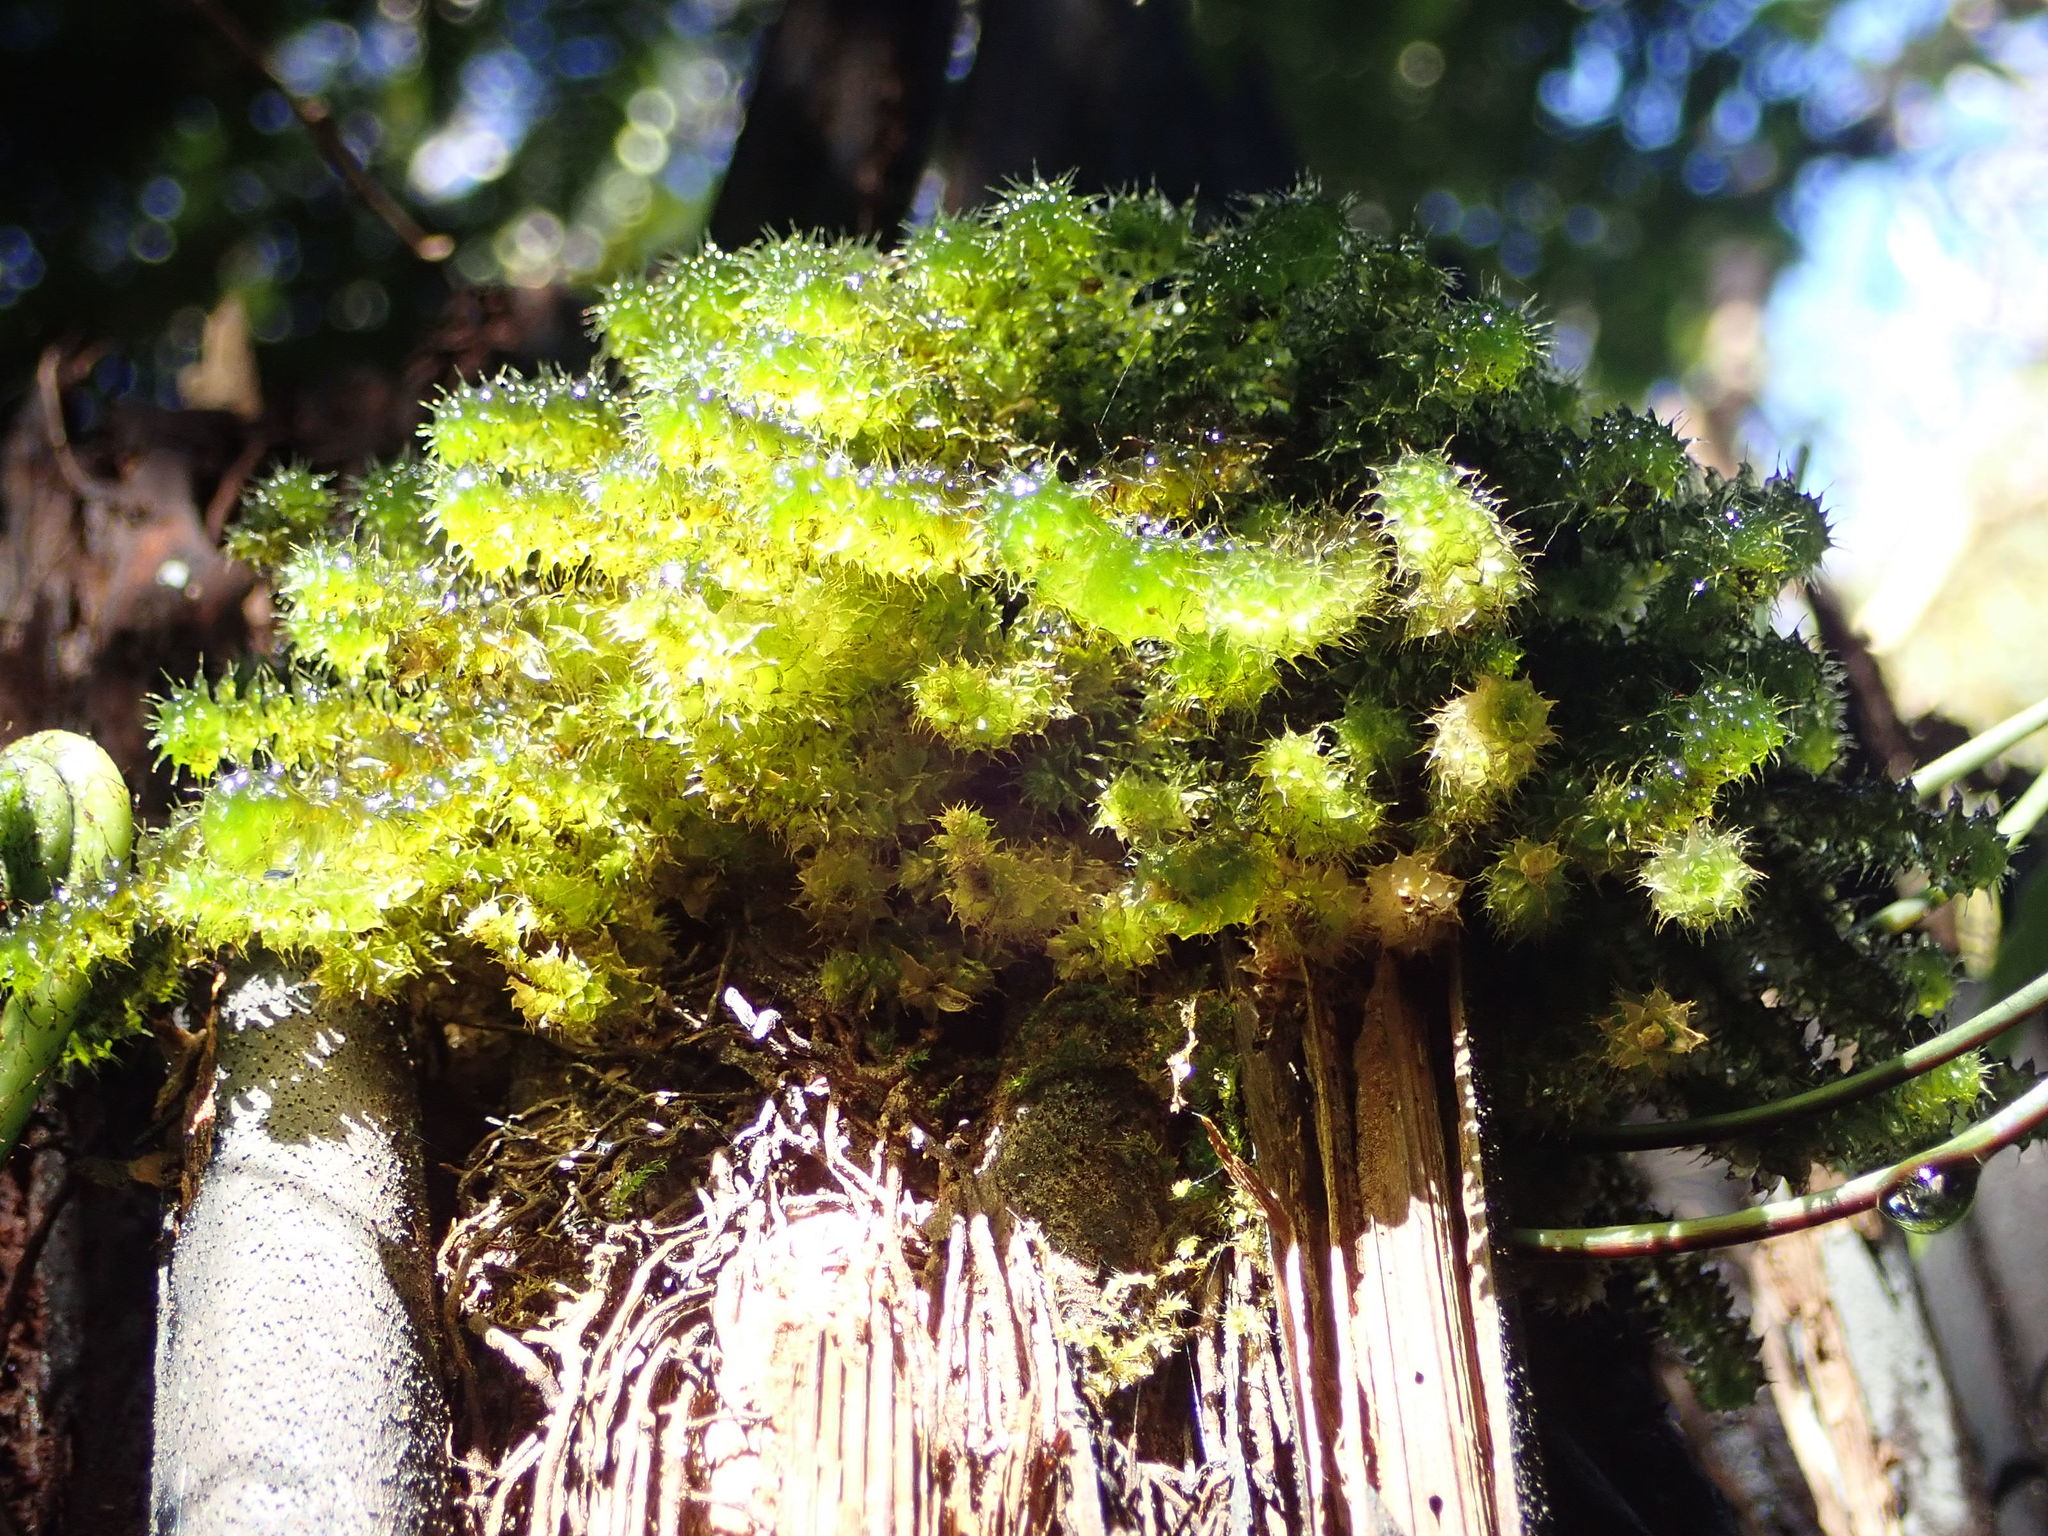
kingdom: Plantae
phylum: Bryophyta
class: Bryopsida
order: Ptychomniales
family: Ptychomniaceae
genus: Ptychomnion
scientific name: Ptychomnion aciculare
